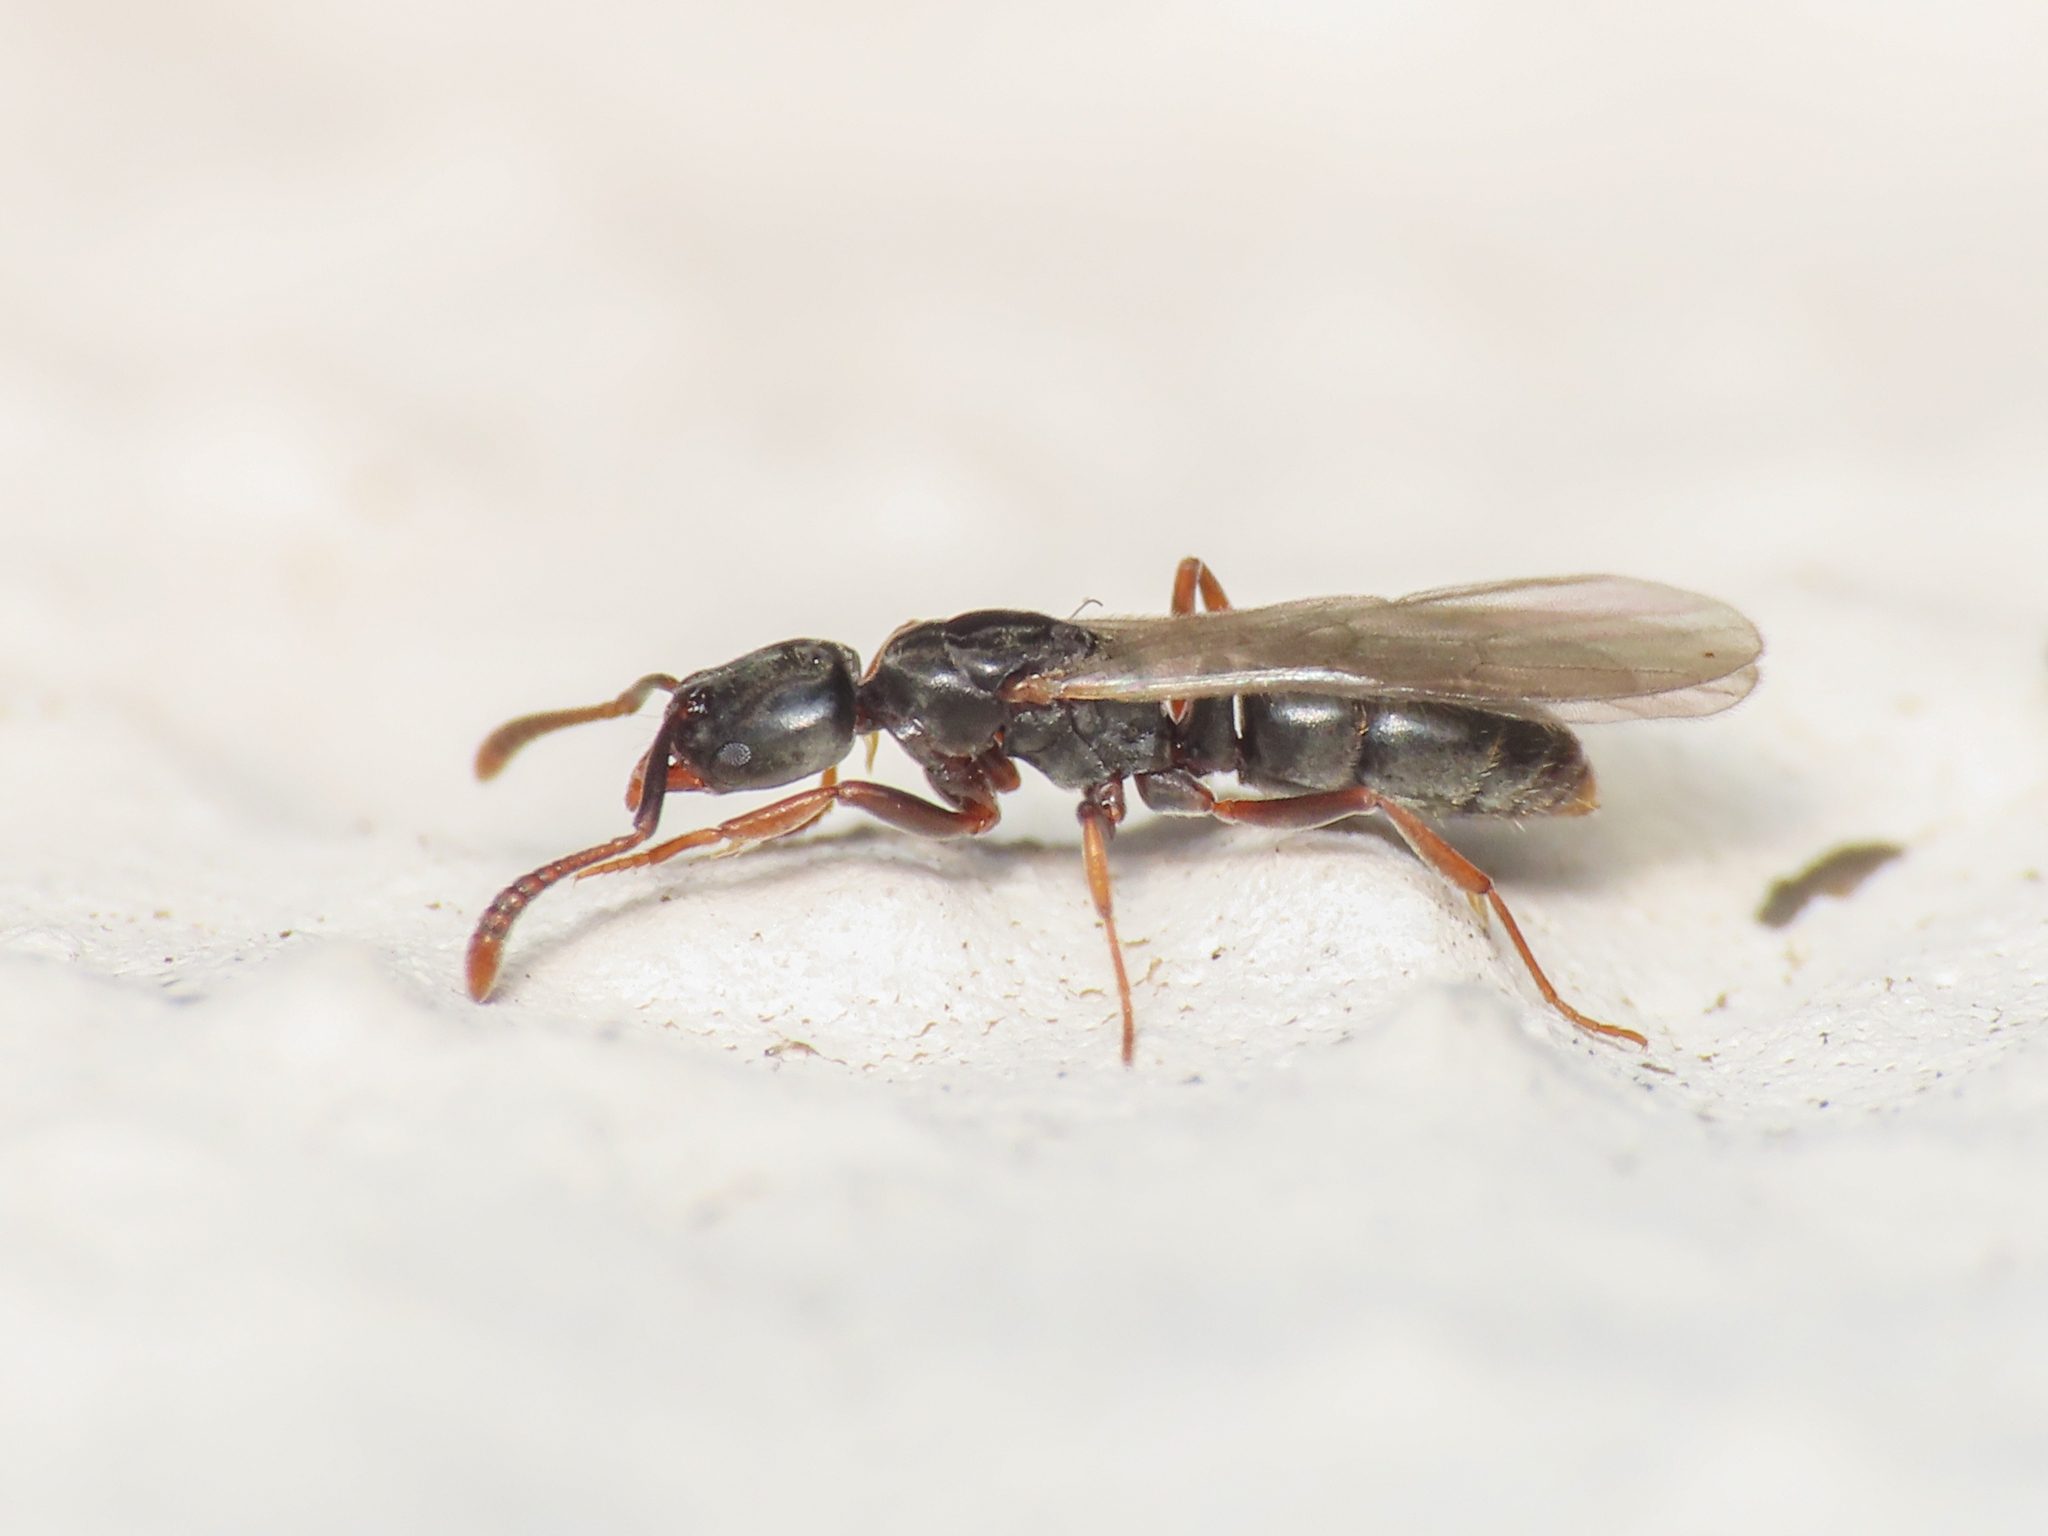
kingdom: Animalia
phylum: Arthropoda
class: Insecta
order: Hymenoptera
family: Formicidae
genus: Hypoponera
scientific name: Hypoponera eduardi
